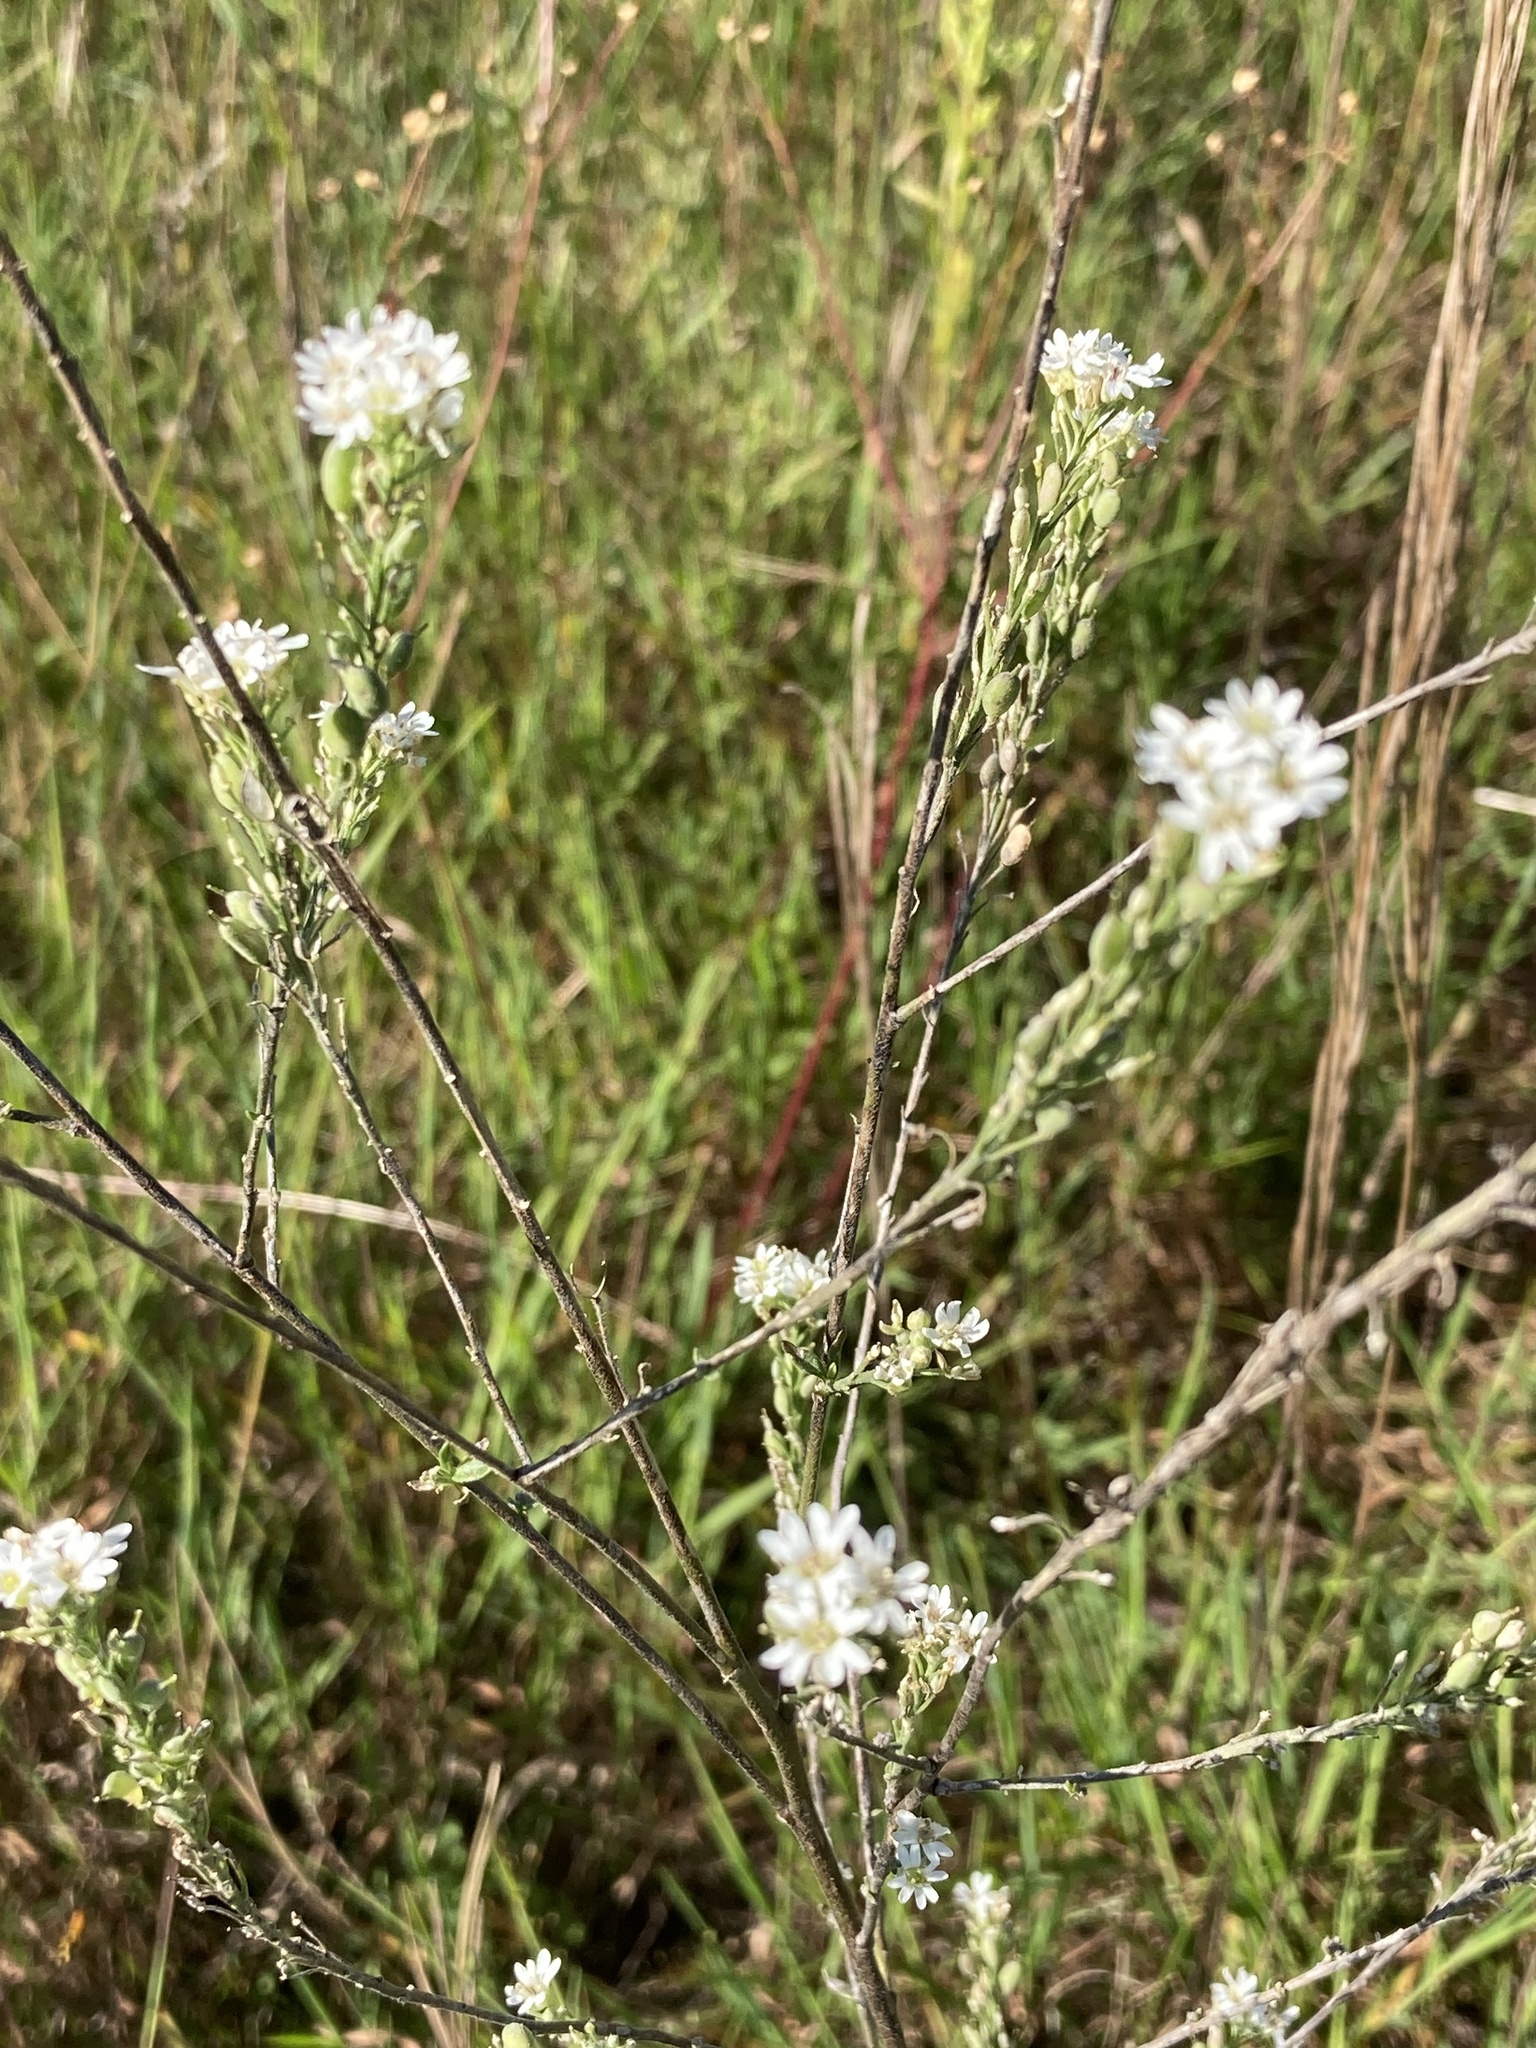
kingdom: Plantae
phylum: Tracheophyta
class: Magnoliopsida
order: Brassicales
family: Brassicaceae
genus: Berteroa
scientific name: Berteroa incana
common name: Hoary alison
